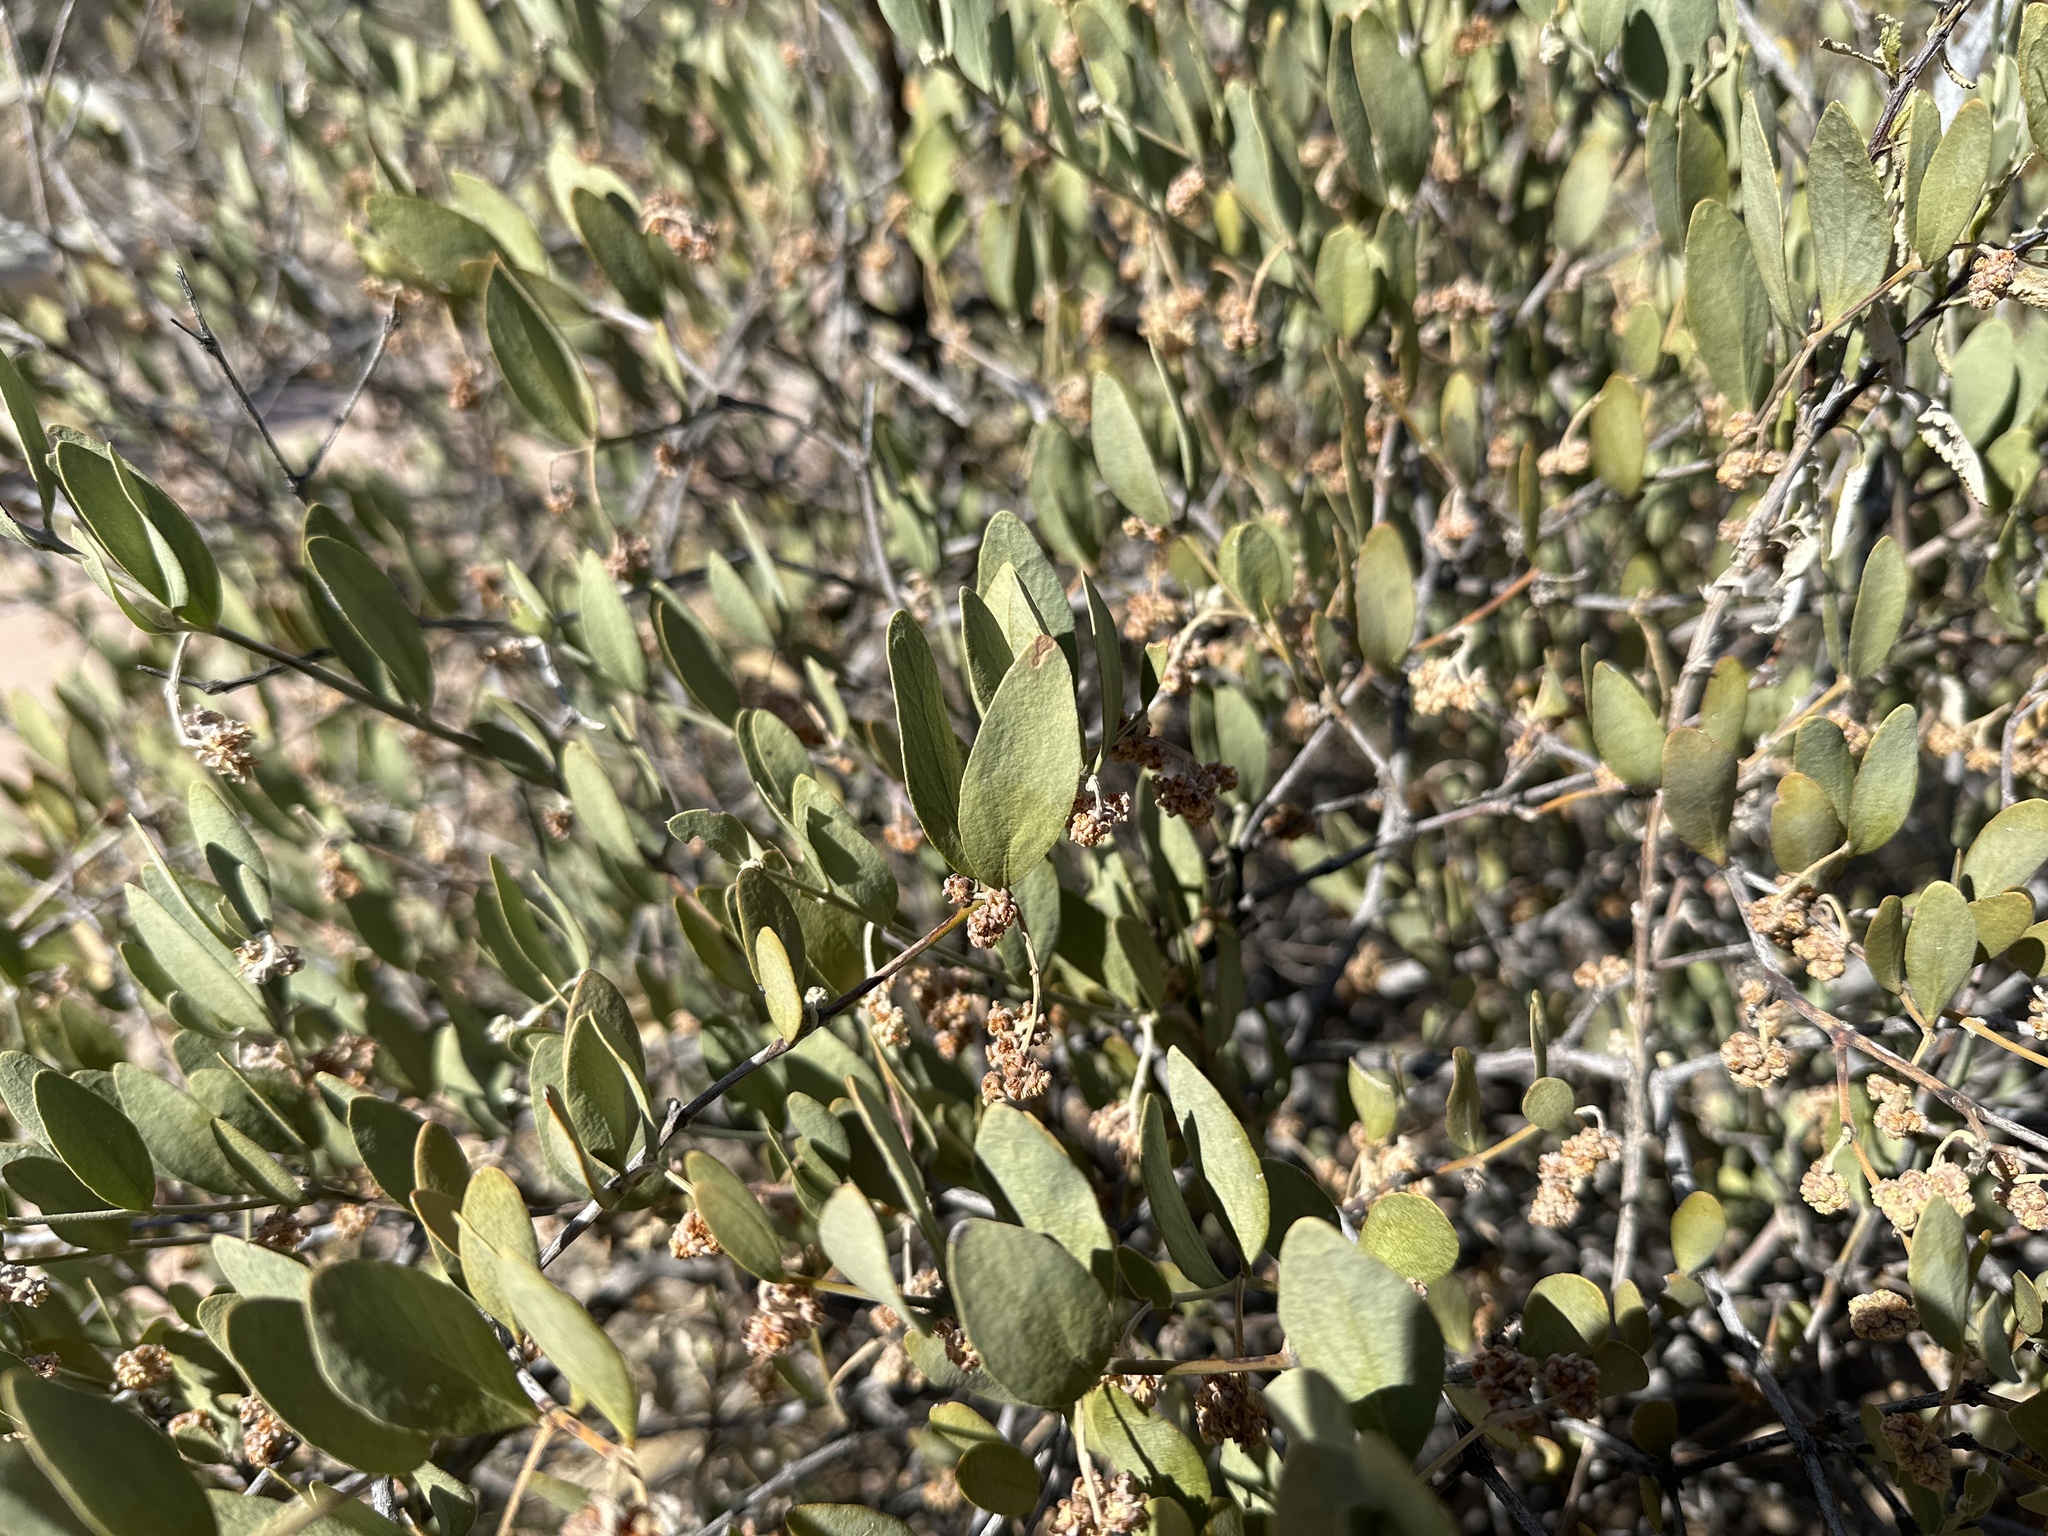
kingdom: Plantae
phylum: Tracheophyta
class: Magnoliopsida
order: Caryophyllales
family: Simmondsiaceae
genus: Simmondsia
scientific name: Simmondsia chinensis
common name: Jojoba
